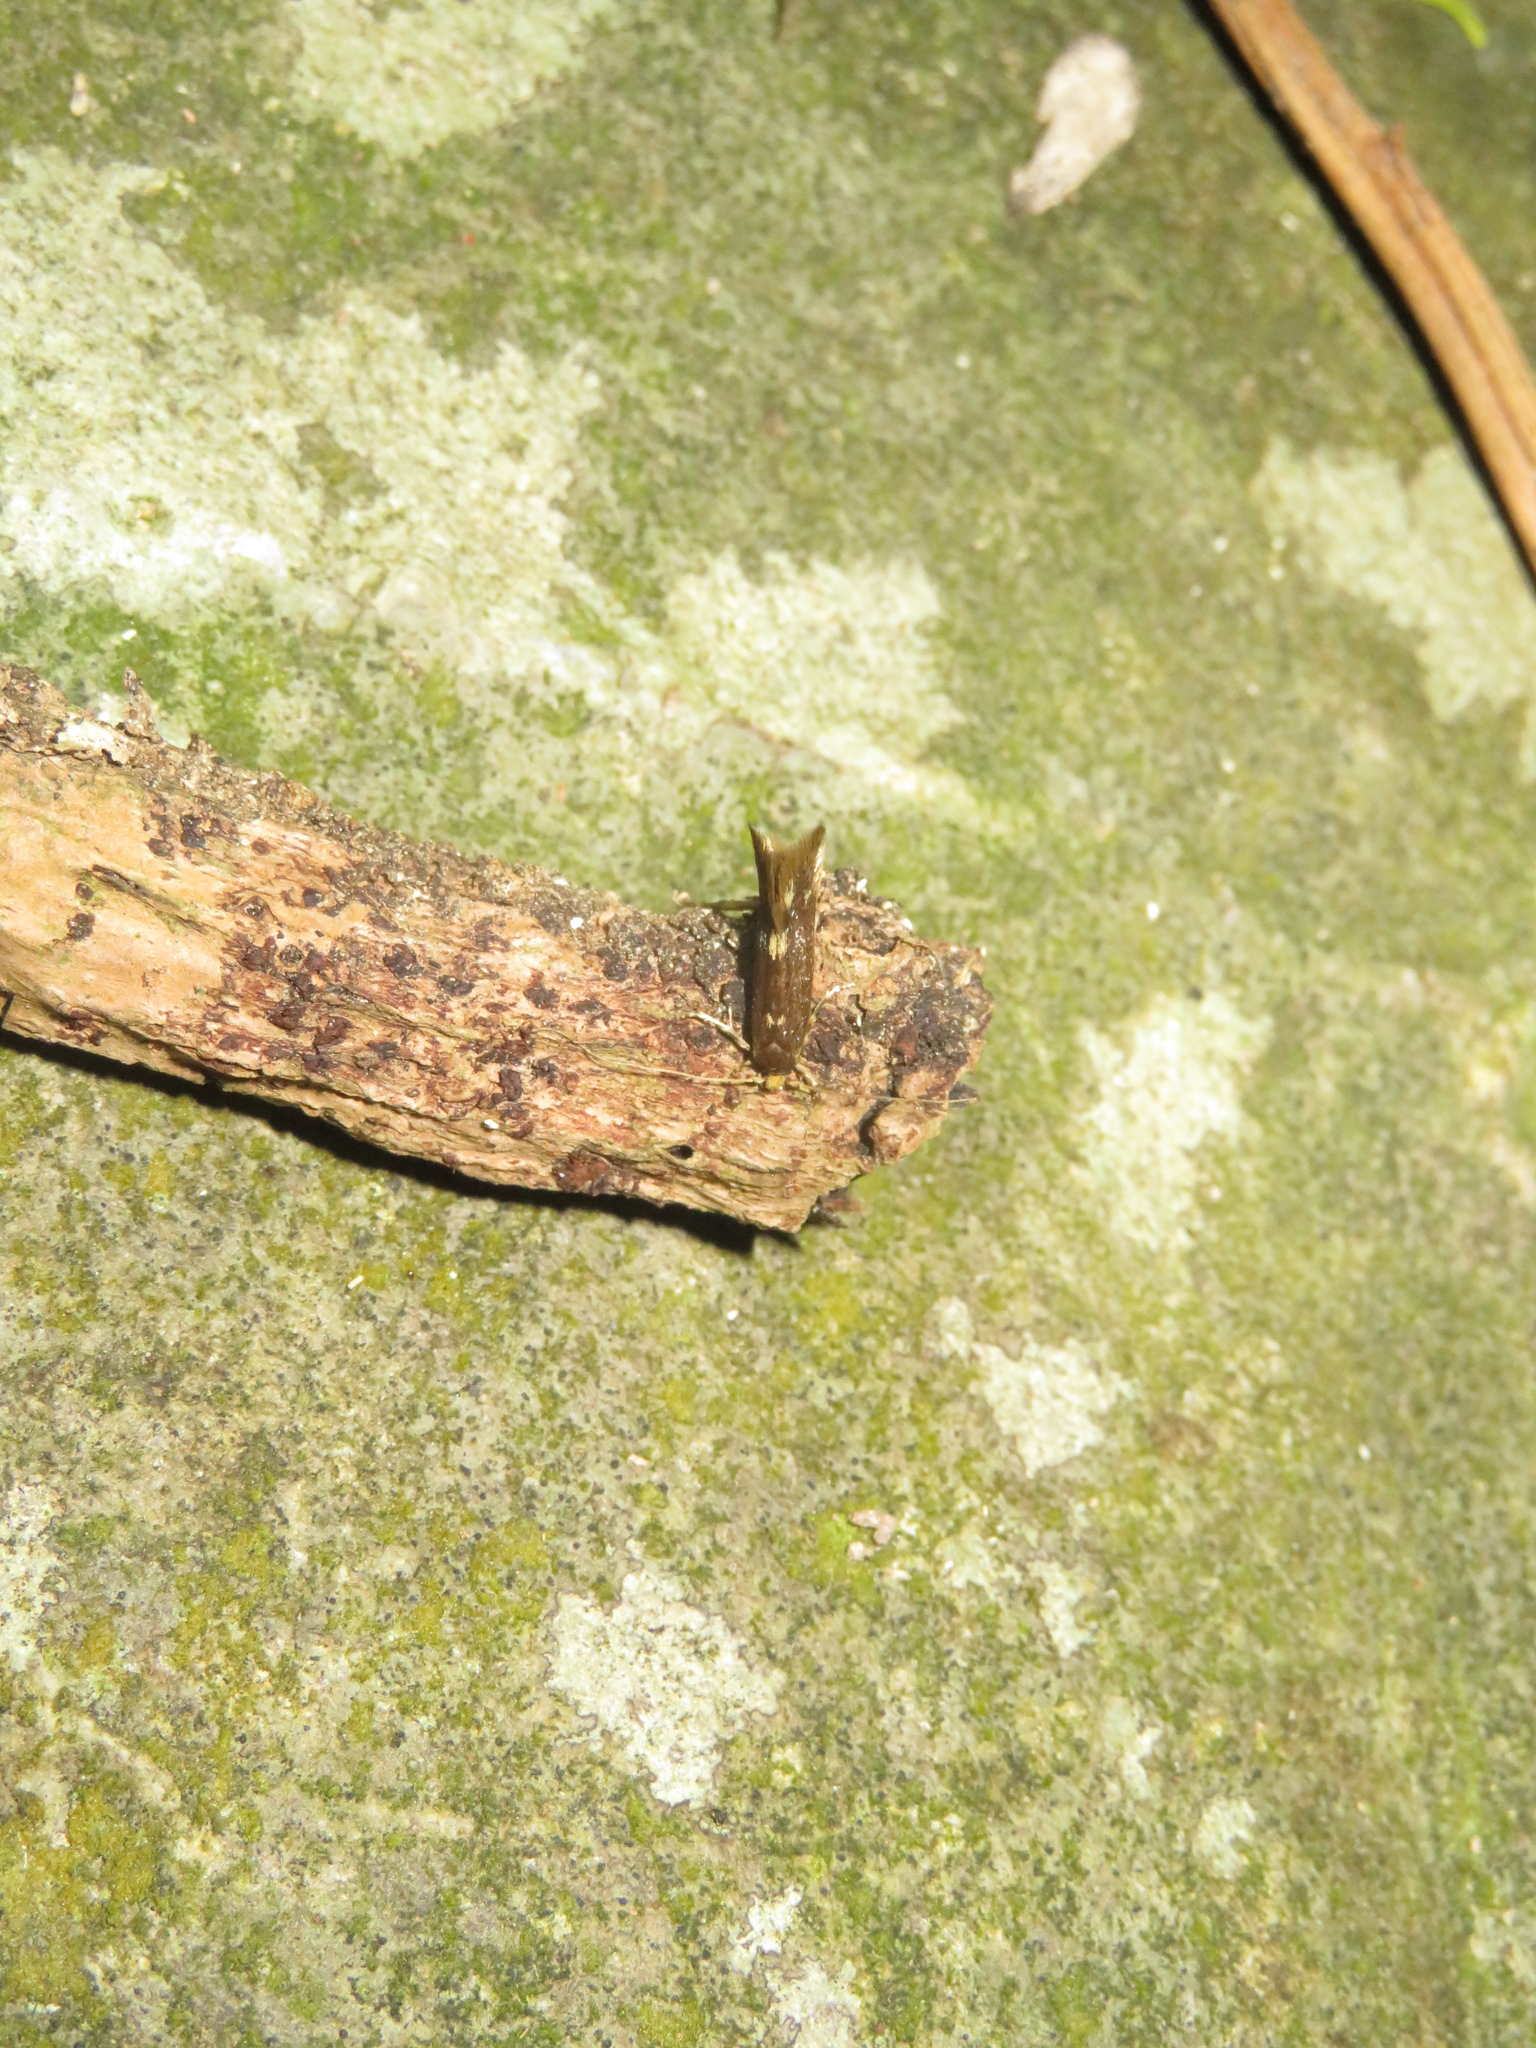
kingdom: Animalia
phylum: Arthropoda
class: Insecta
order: Lepidoptera
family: Tineidae
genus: Opogona
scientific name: Opogona omoscopa
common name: Moth
